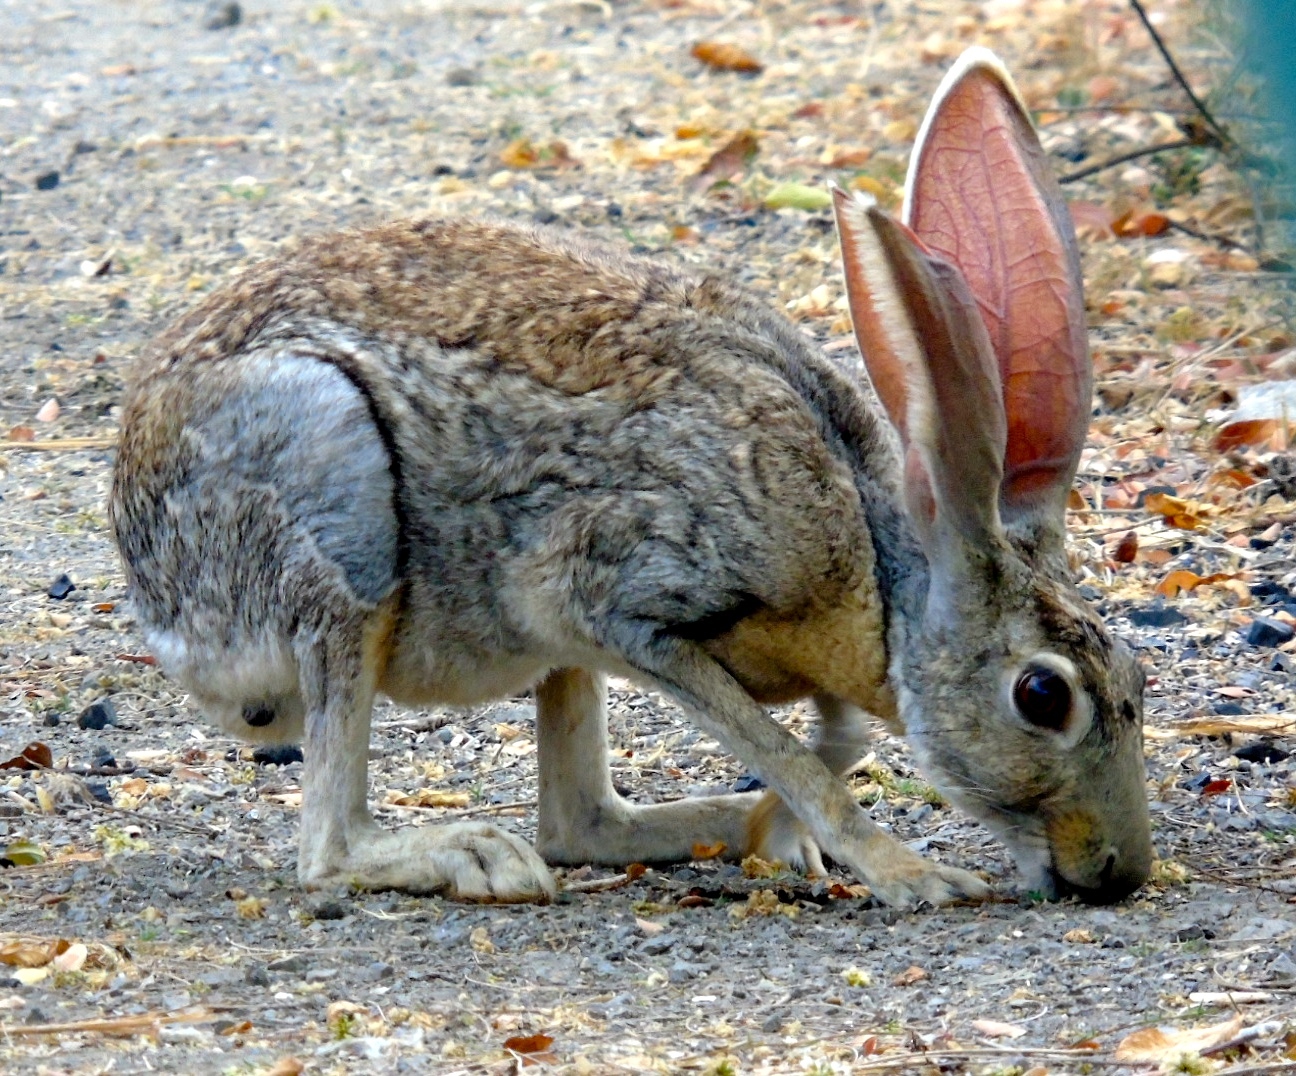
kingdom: Animalia
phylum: Chordata
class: Mammalia
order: Lagomorpha
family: Leporidae
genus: Lepus
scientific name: Lepus alleni
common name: Antelope jackrabbit
